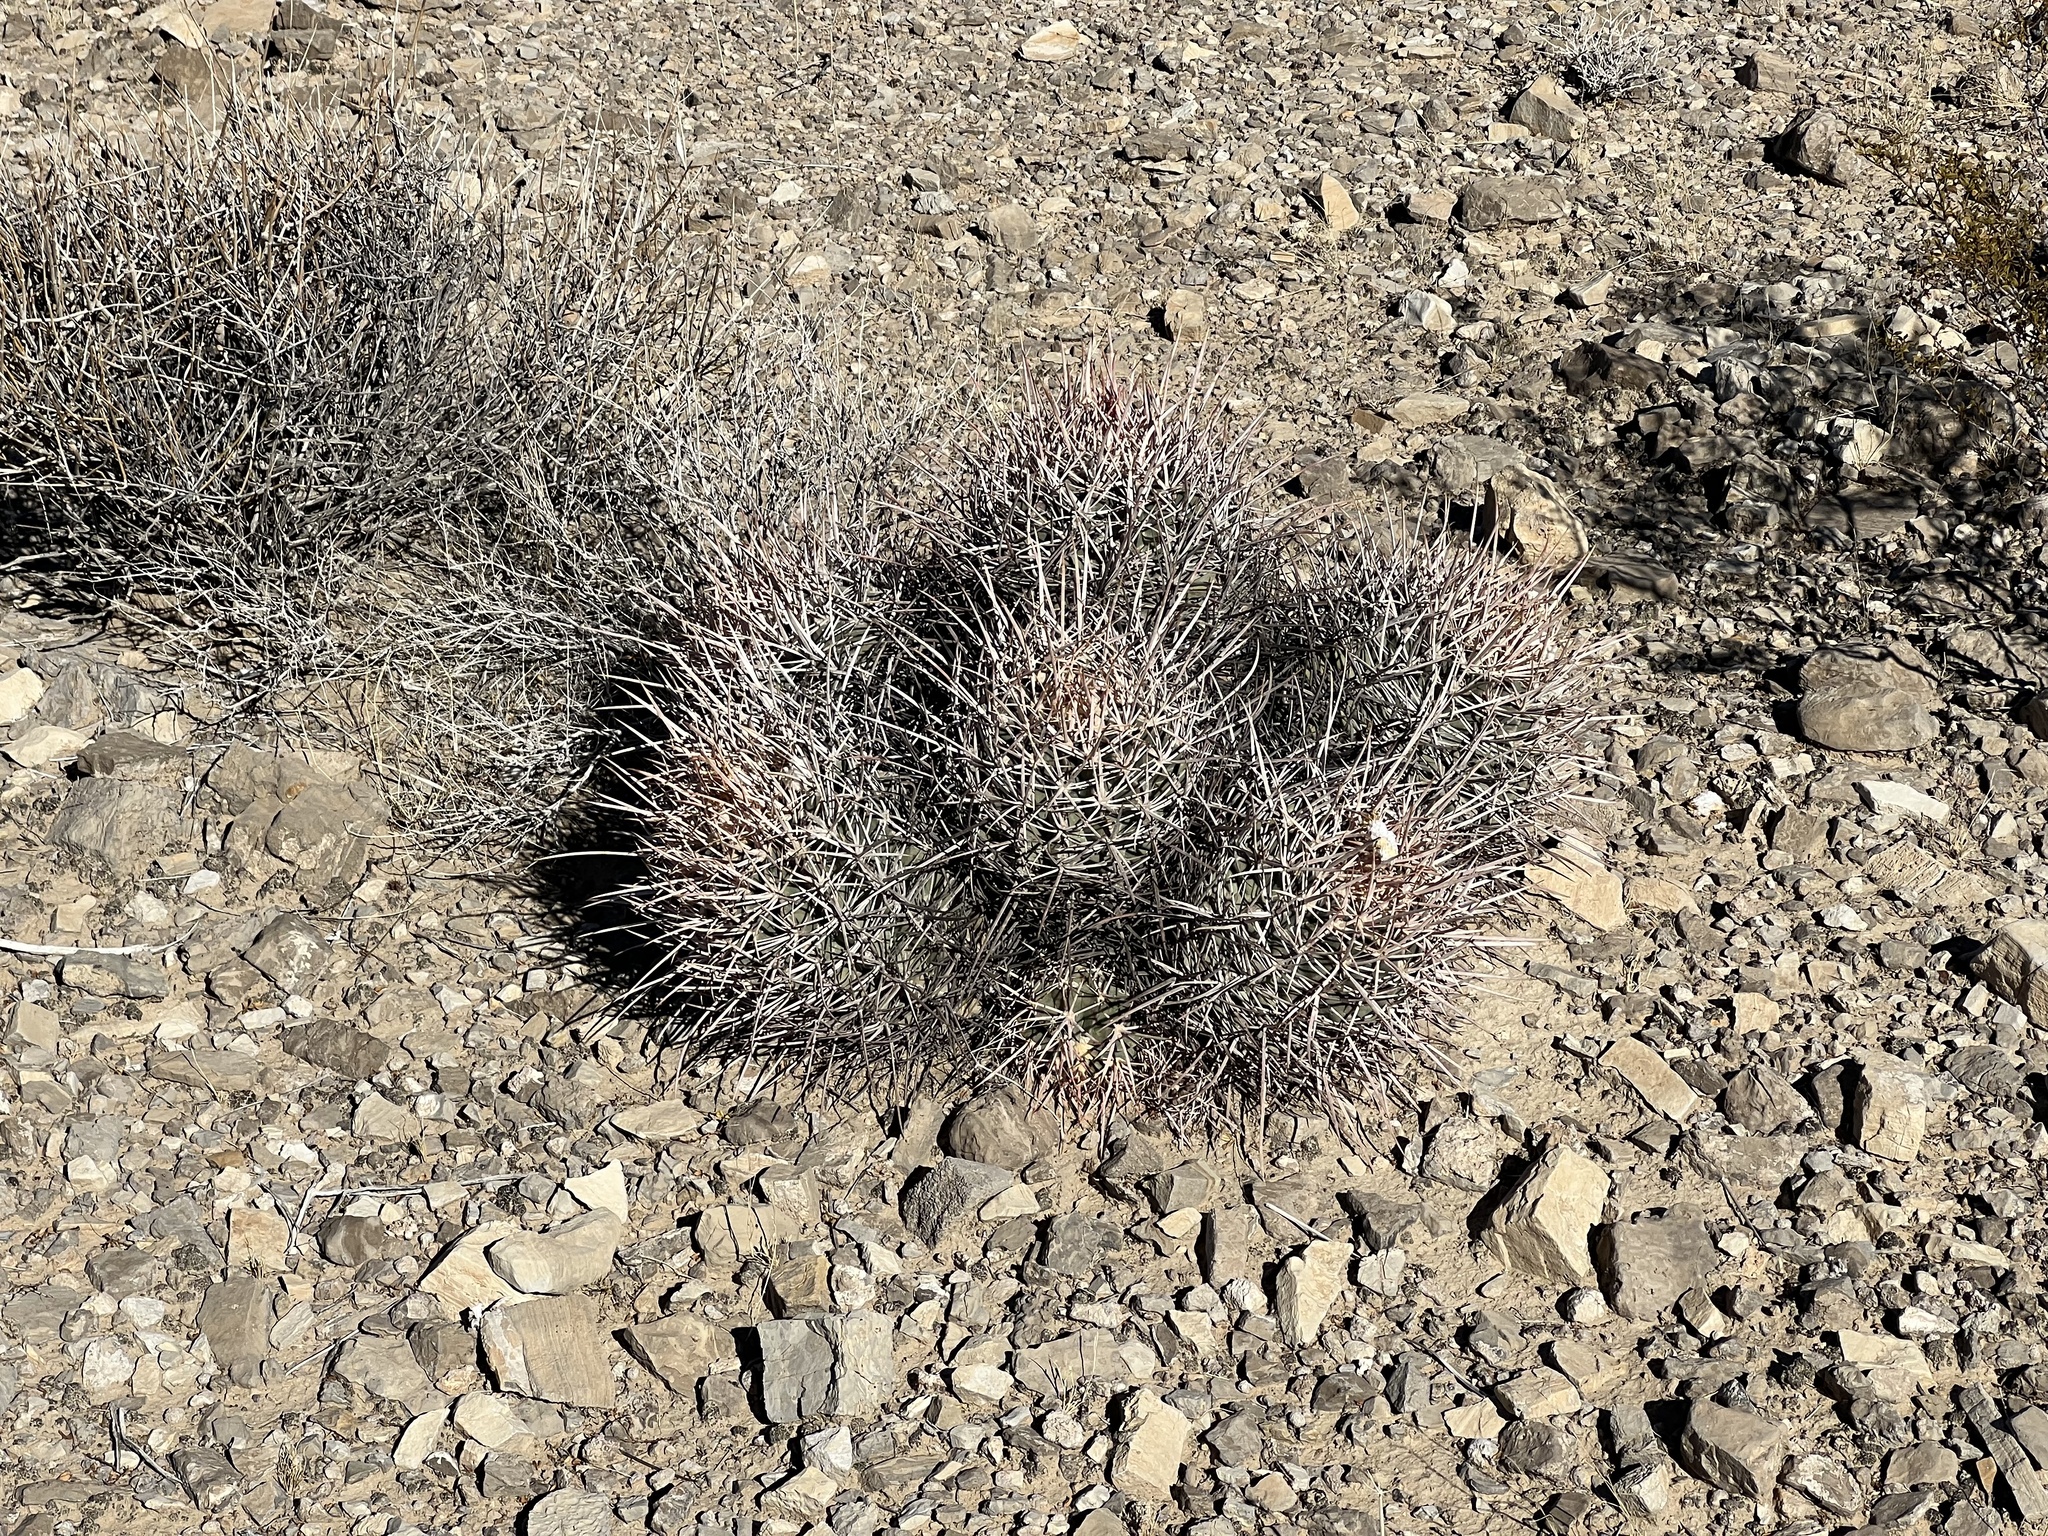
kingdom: Plantae
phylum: Tracheophyta
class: Magnoliopsida
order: Caryophyllales
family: Cactaceae
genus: Echinocactus
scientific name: Echinocactus polycephalus
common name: Cottontop cactus
